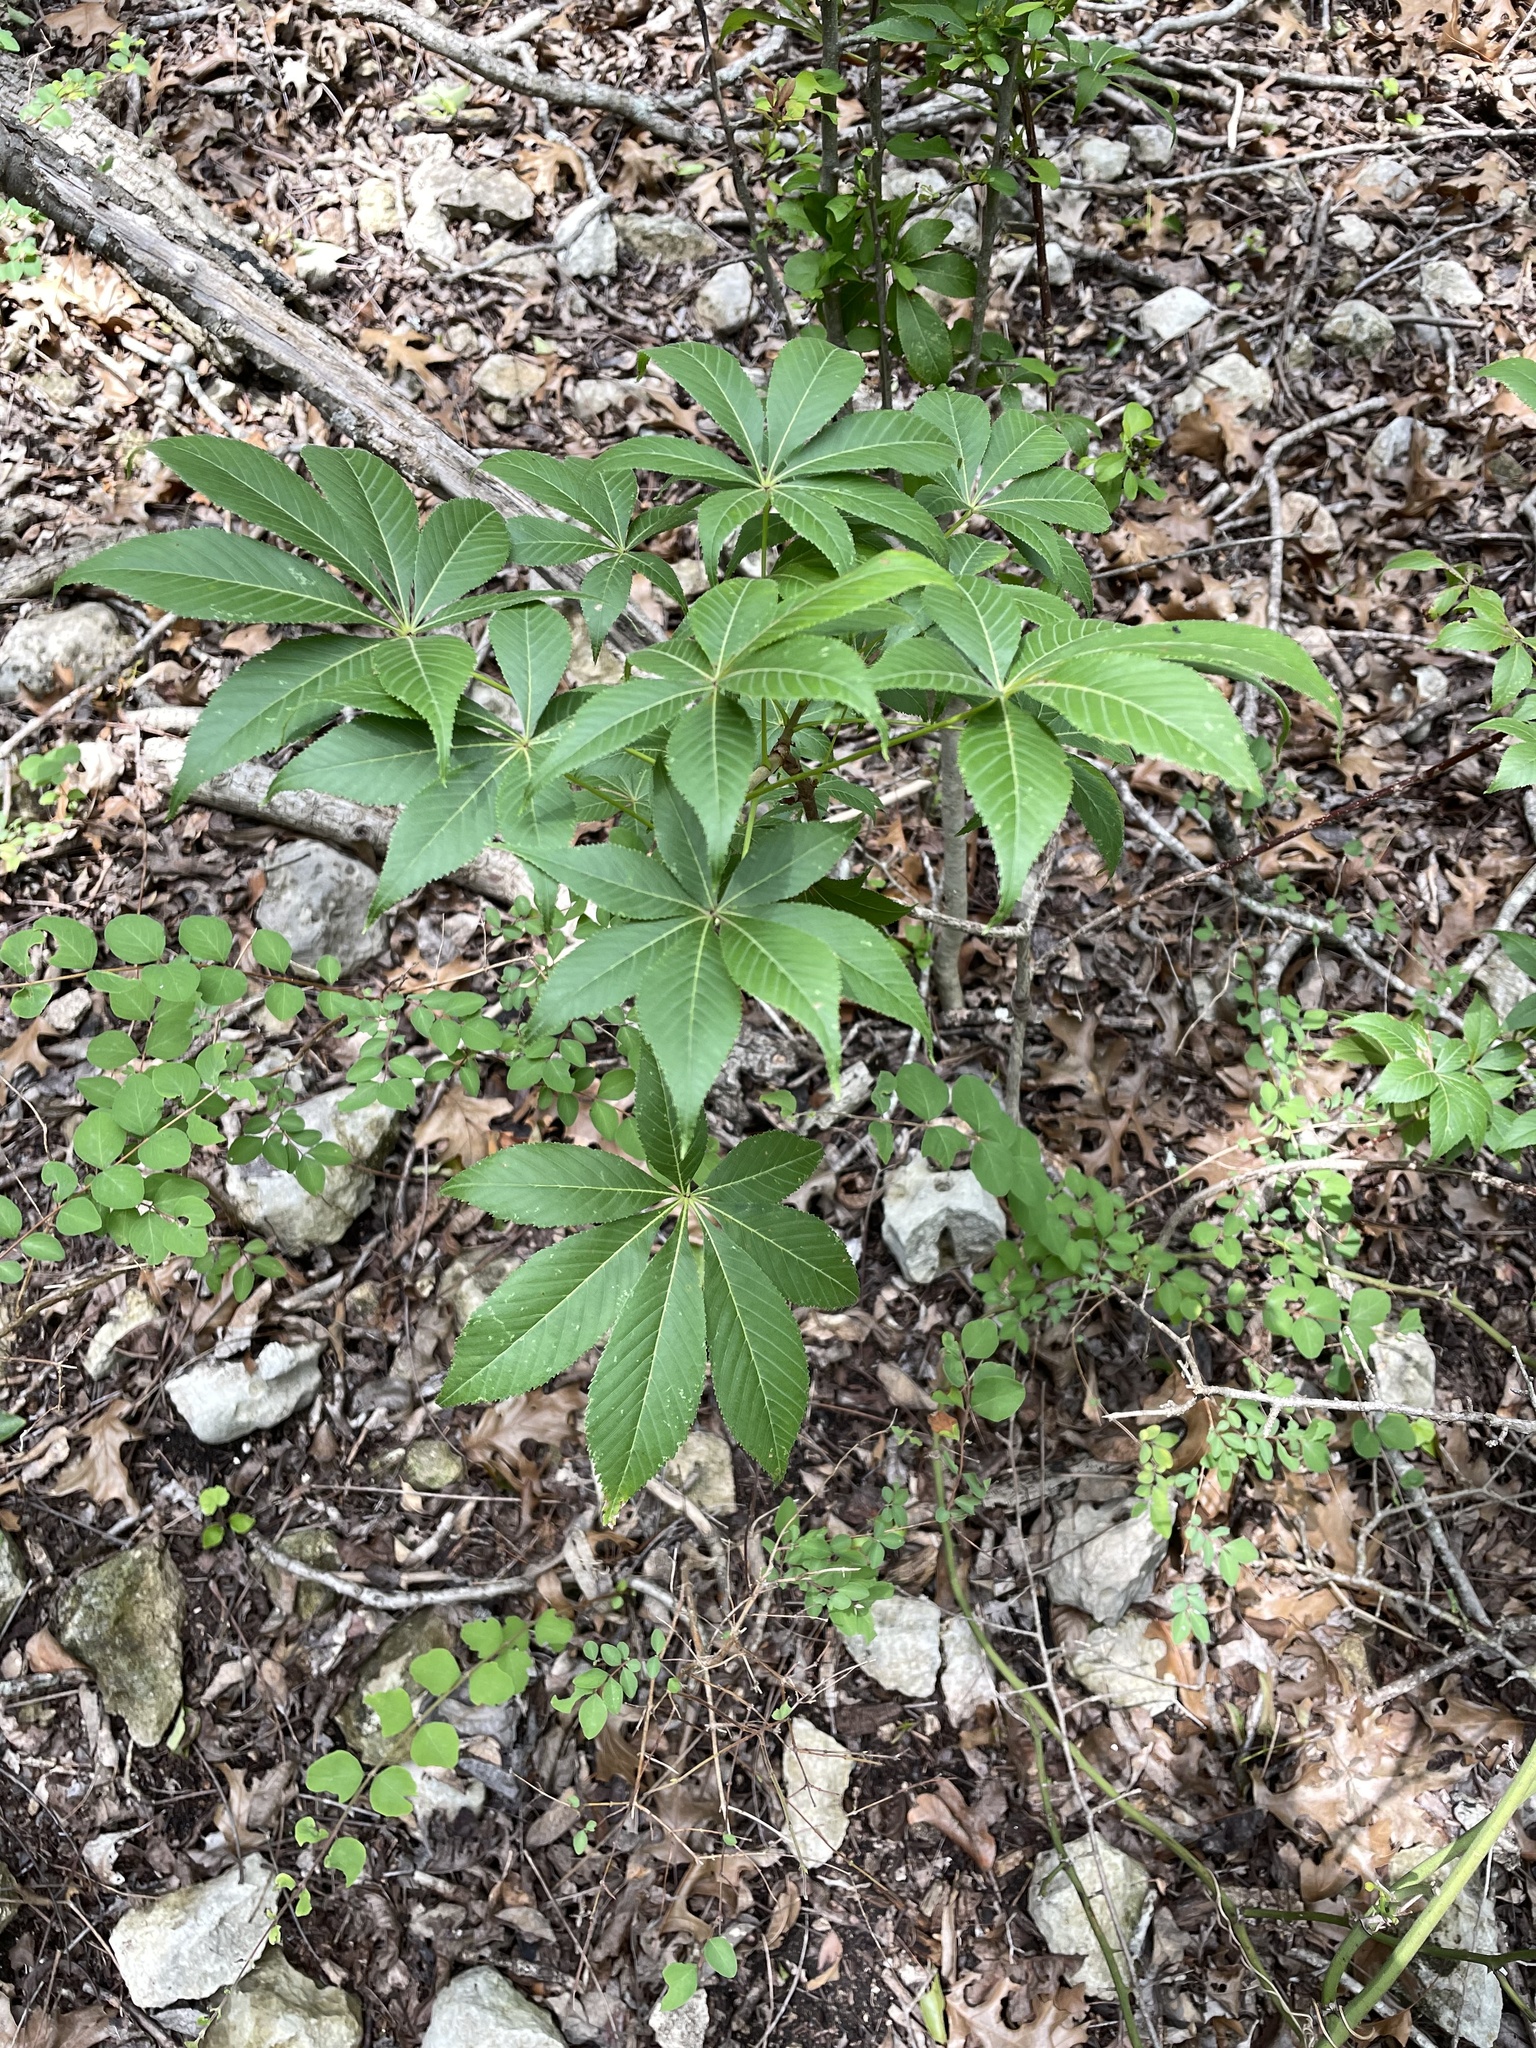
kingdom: Plantae
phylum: Tracheophyta
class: Magnoliopsida
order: Sapindales
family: Sapindaceae
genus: Aesculus
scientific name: Aesculus glabra
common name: Ohio buckeye
